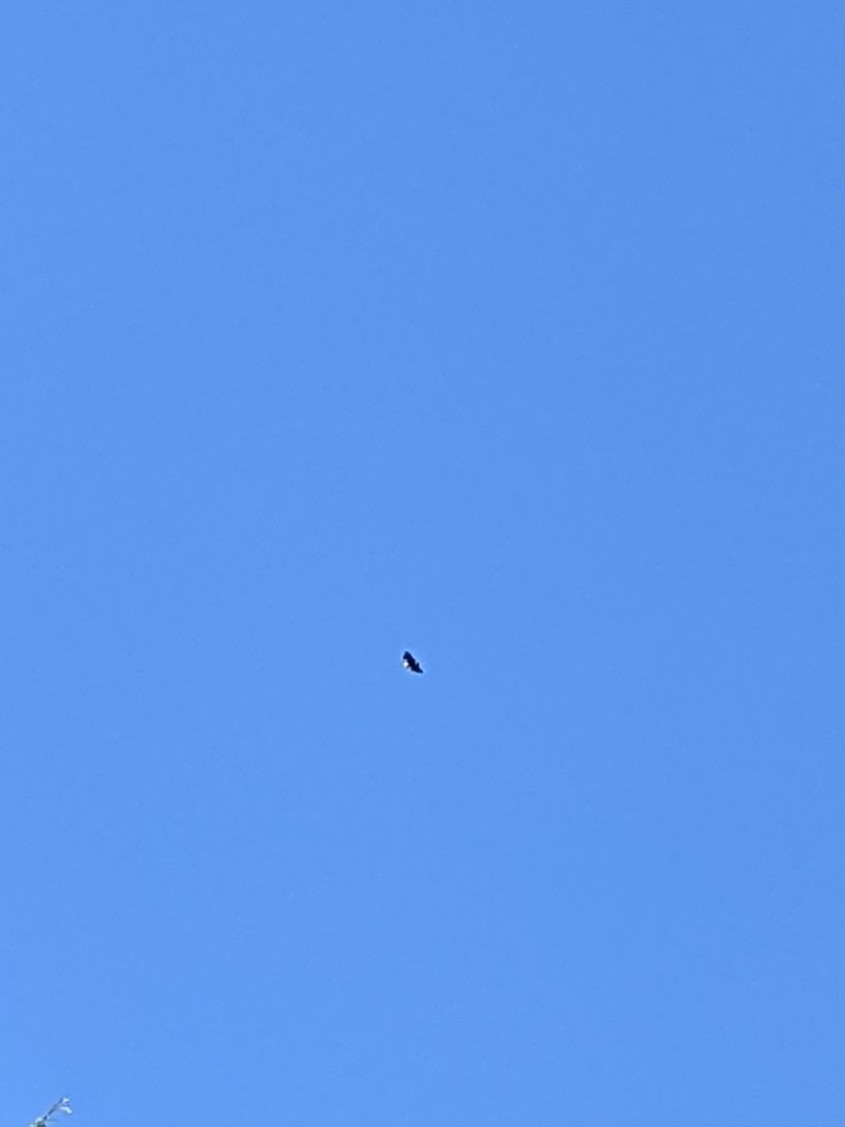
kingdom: Animalia
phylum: Chordata
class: Aves
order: Accipitriformes
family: Accipitridae
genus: Haliaeetus
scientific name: Haliaeetus leucocephalus
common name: Bald eagle
